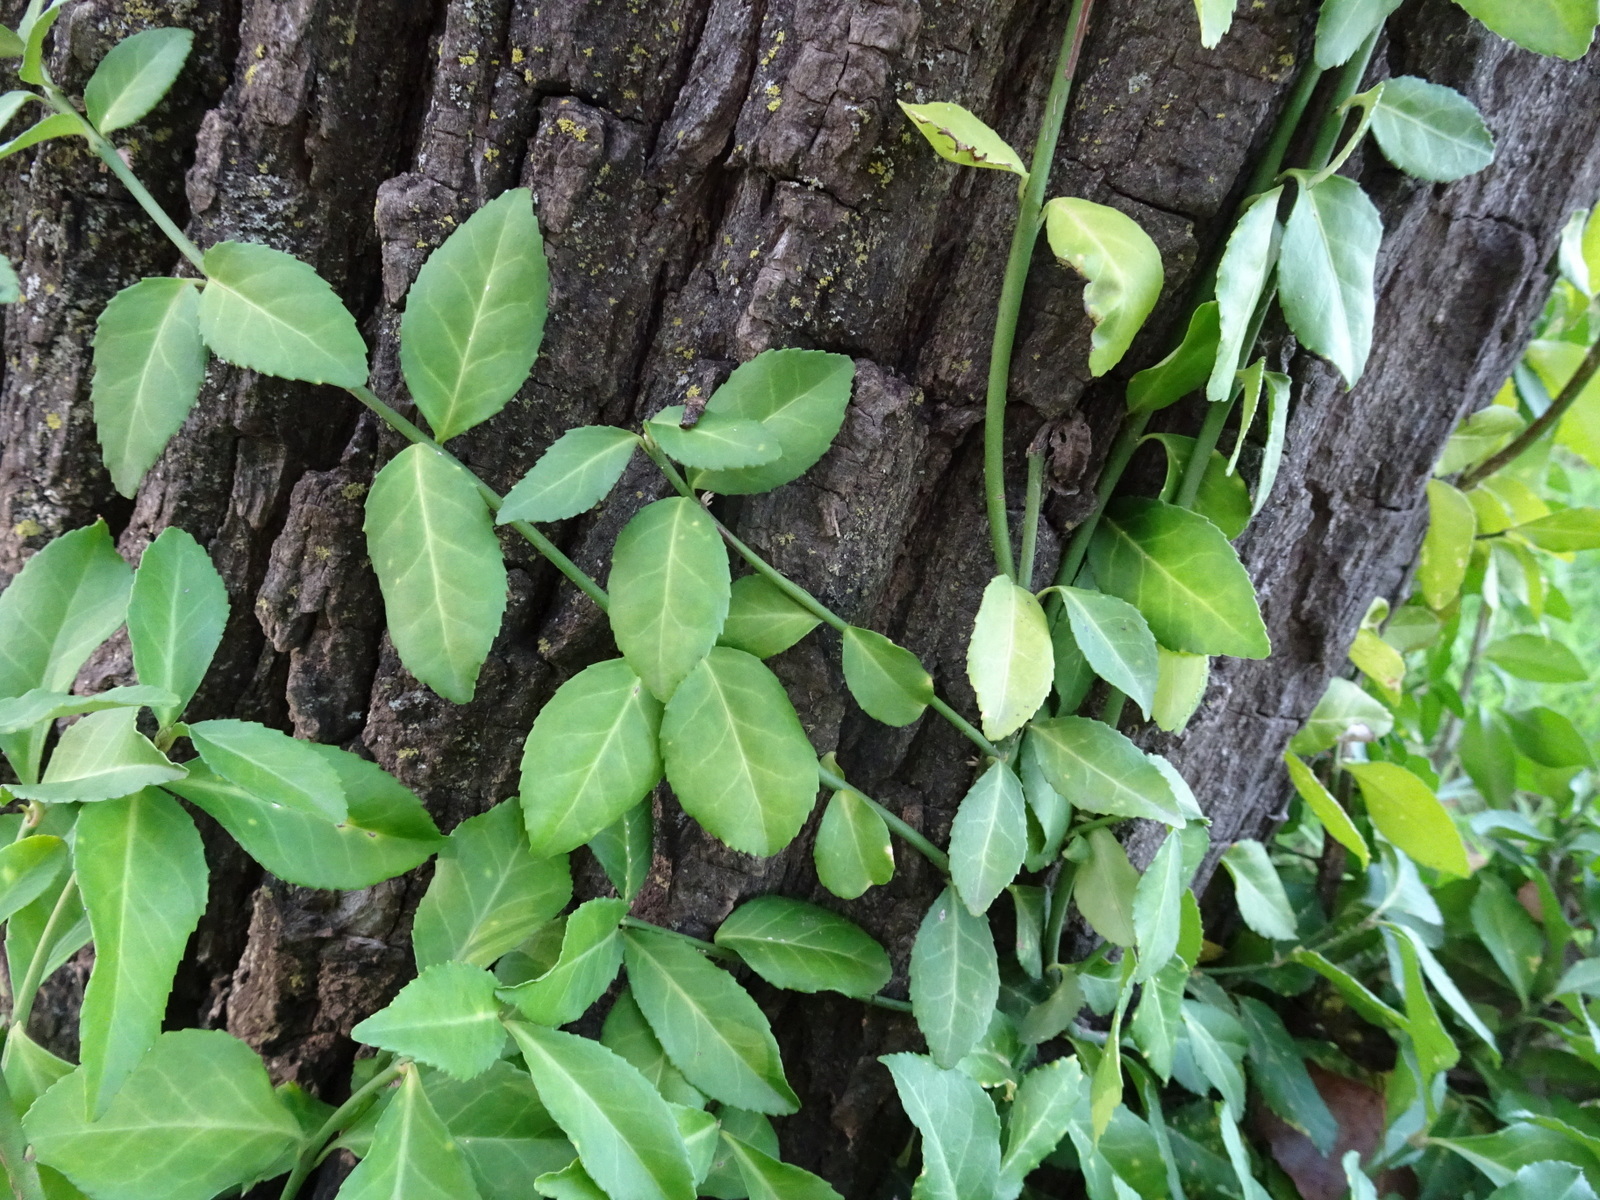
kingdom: Plantae
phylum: Tracheophyta
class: Magnoliopsida
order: Celastrales
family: Celastraceae
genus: Euonymus
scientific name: Euonymus fortunei
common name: Climbing euonymus
